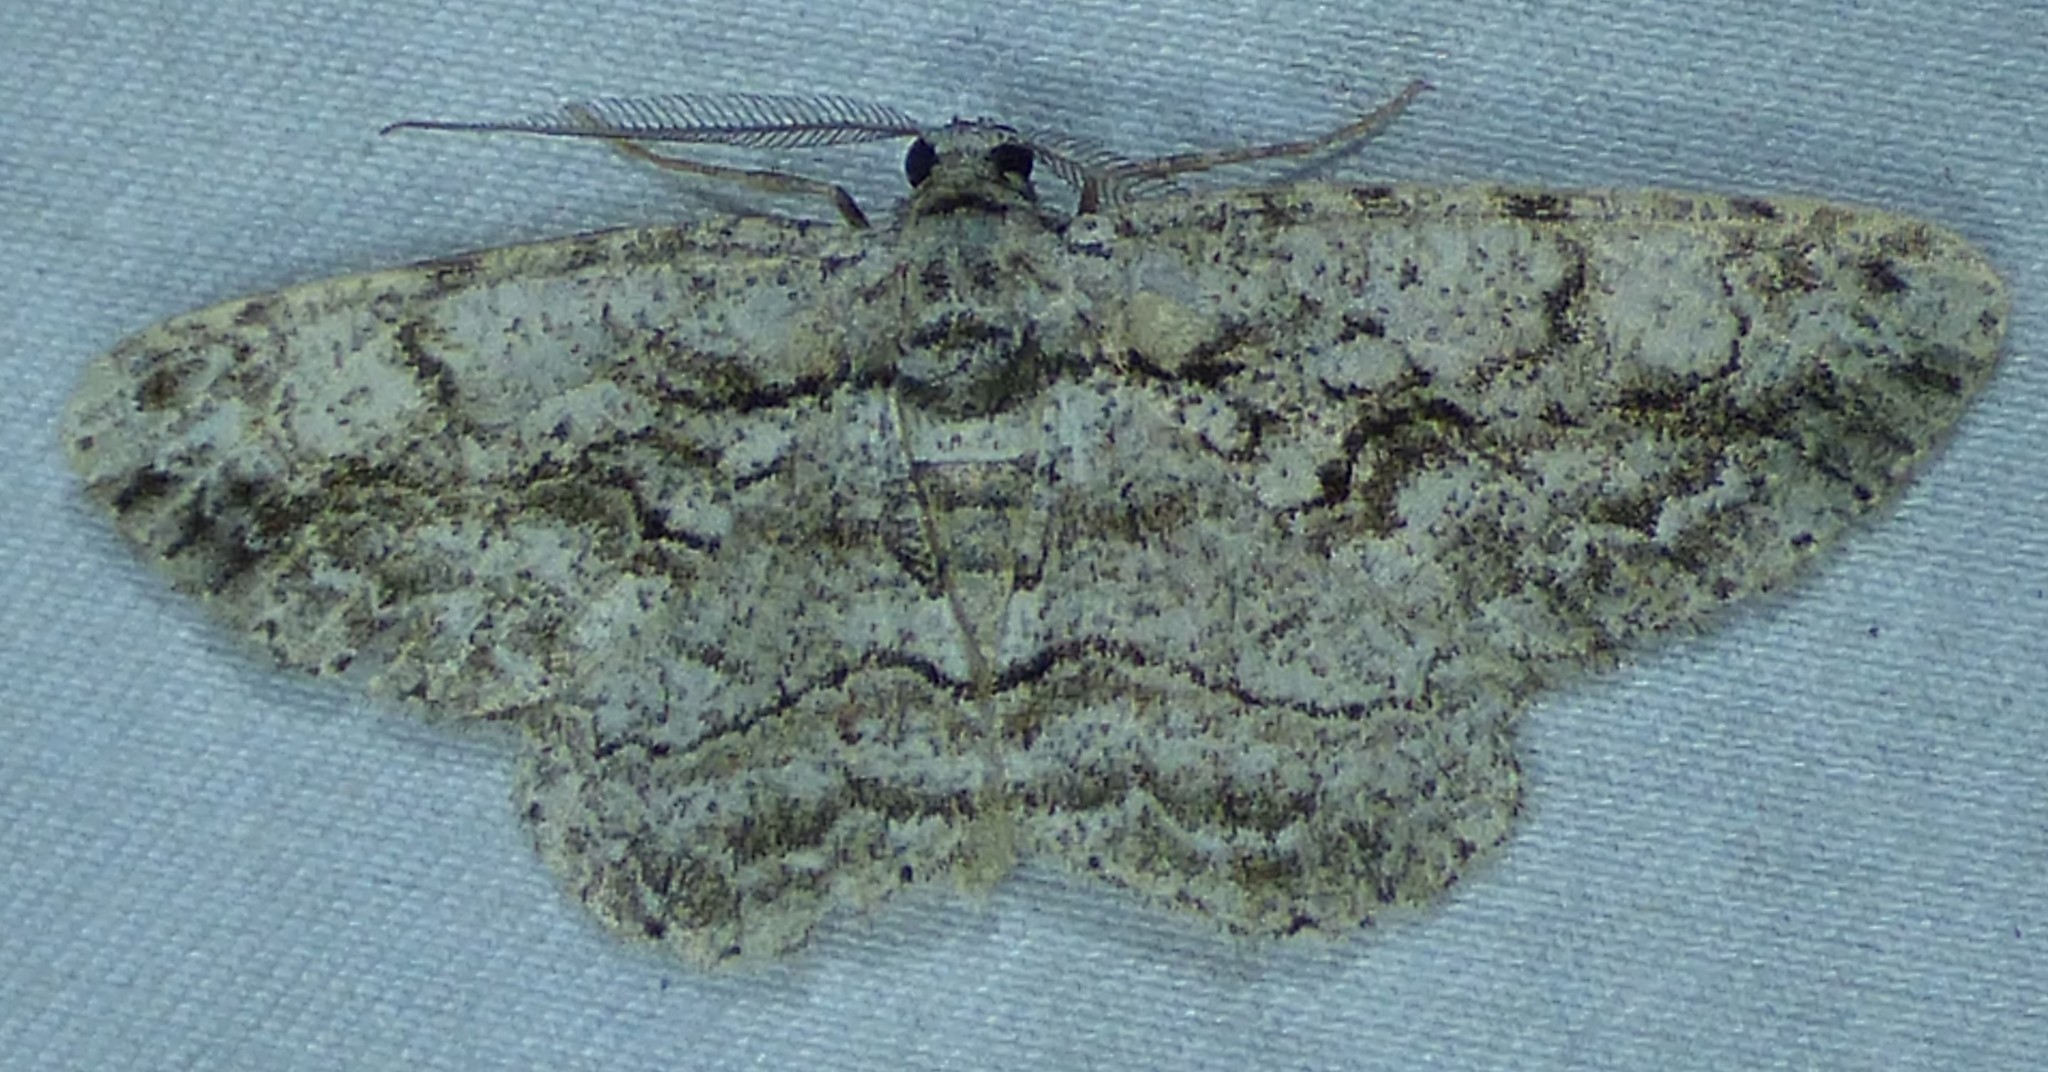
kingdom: Animalia
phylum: Arthropoda
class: Insecta
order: Lepidoptera
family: Geometridae
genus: Anavitrinella
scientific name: Anavitrinella pampinaria
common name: Common gray
